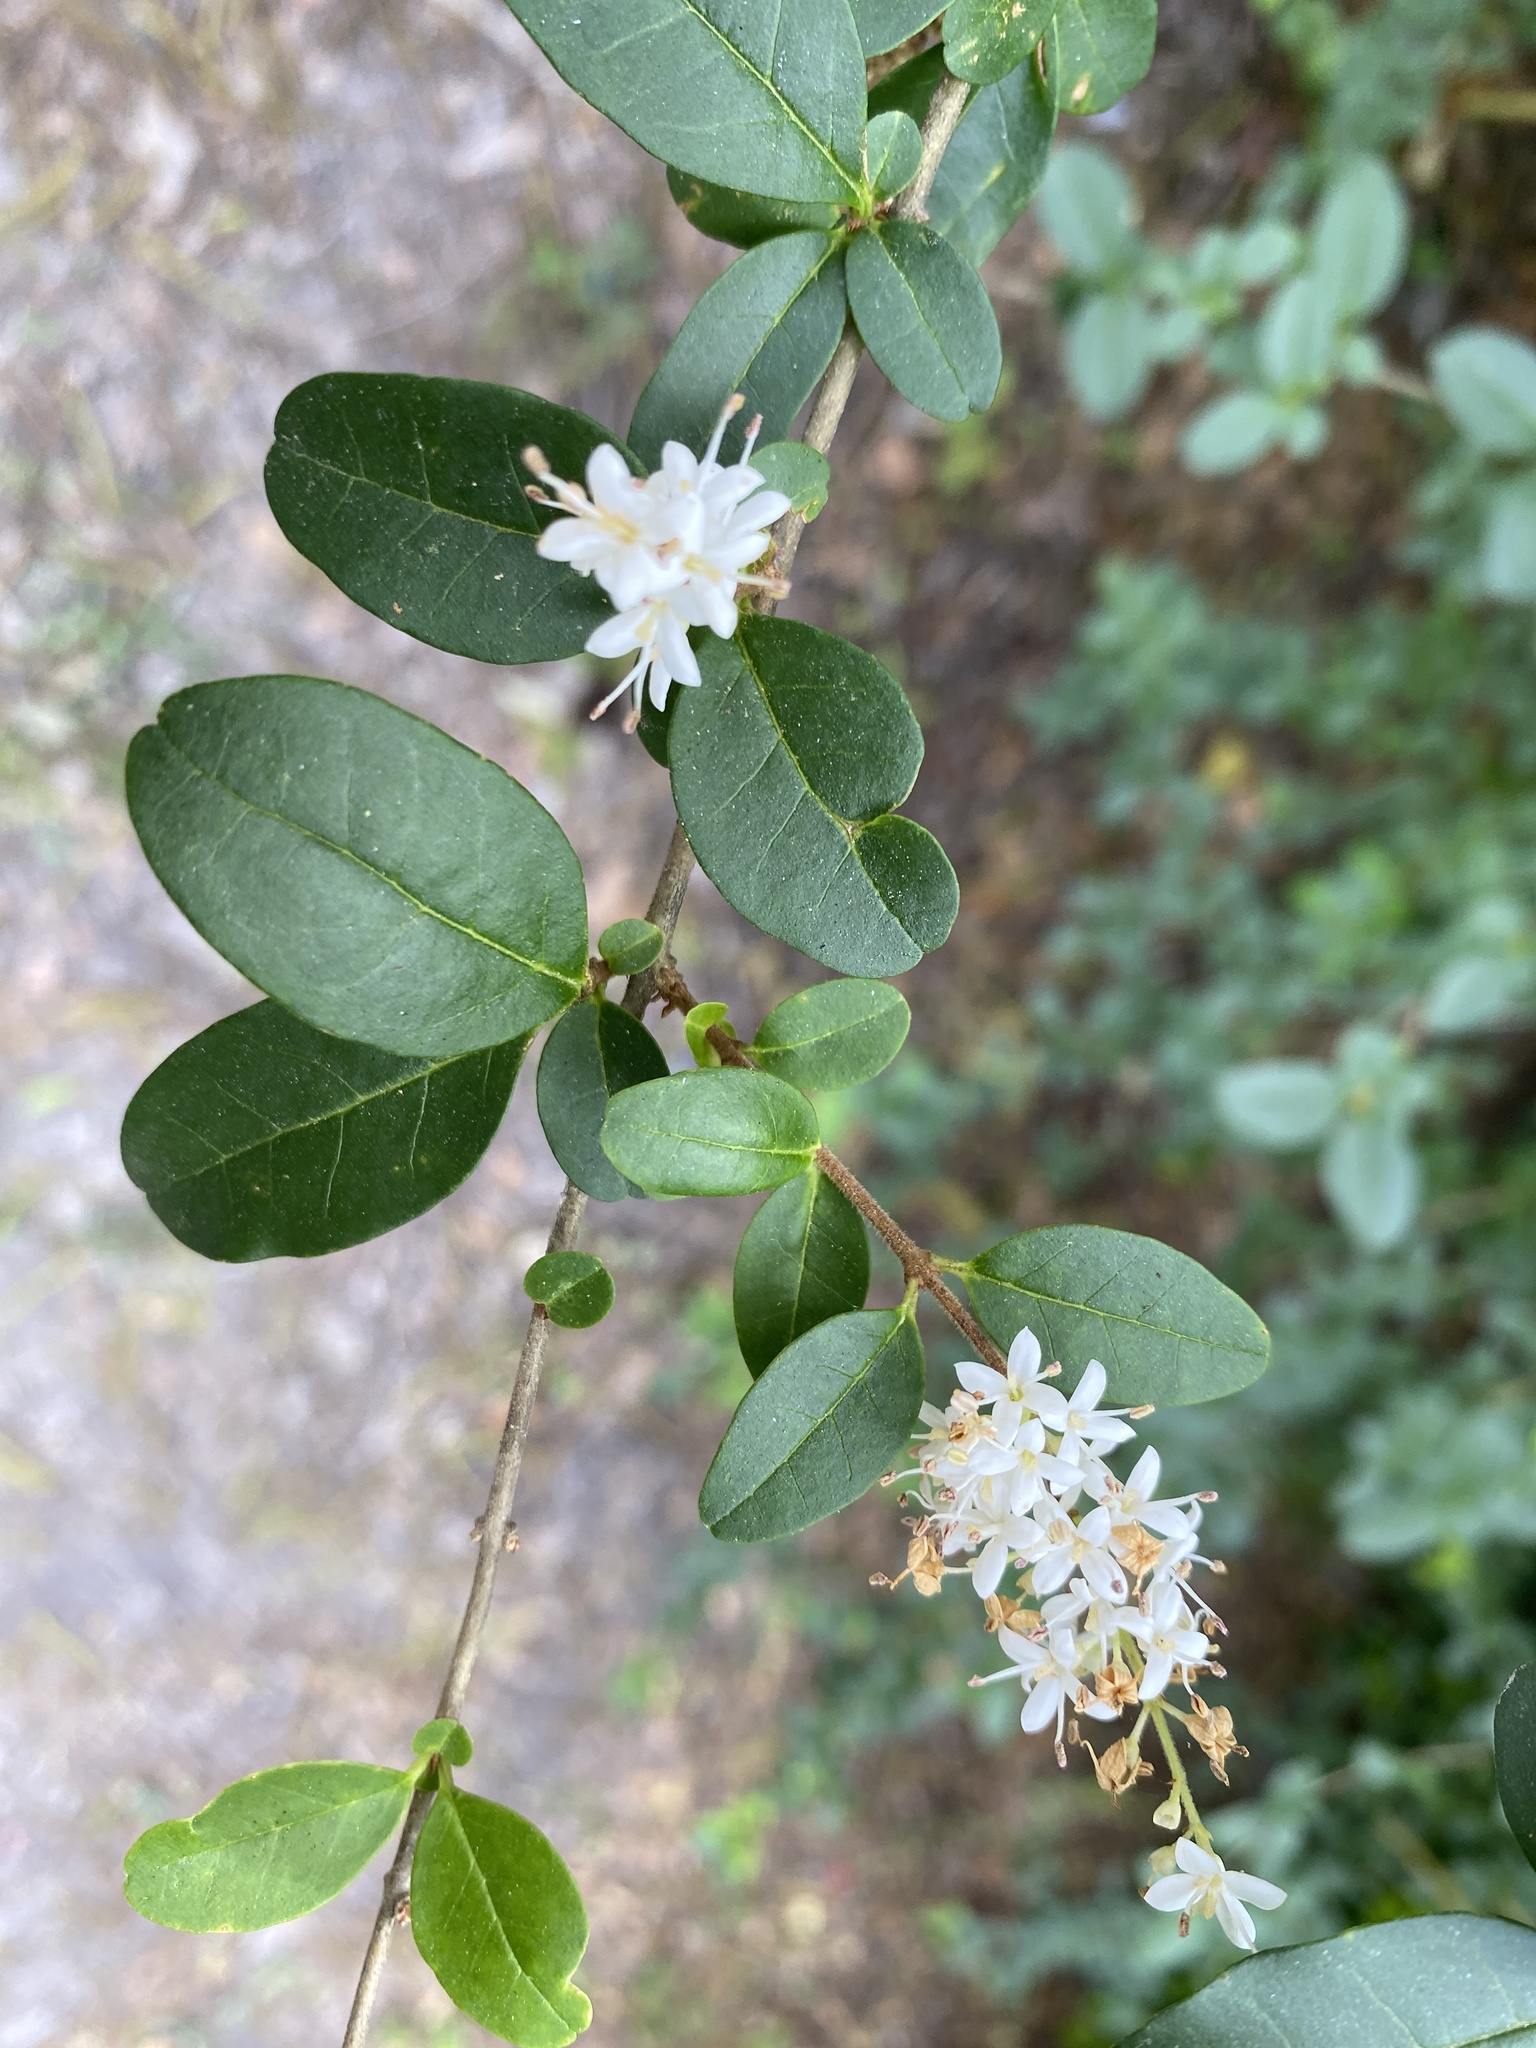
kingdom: Plantae
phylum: Tracheophyta
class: Magnoliopsida
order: Lamiales
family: Oleaceae
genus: Ligustrum
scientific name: Ligustrum sinense
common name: Chinese privet
